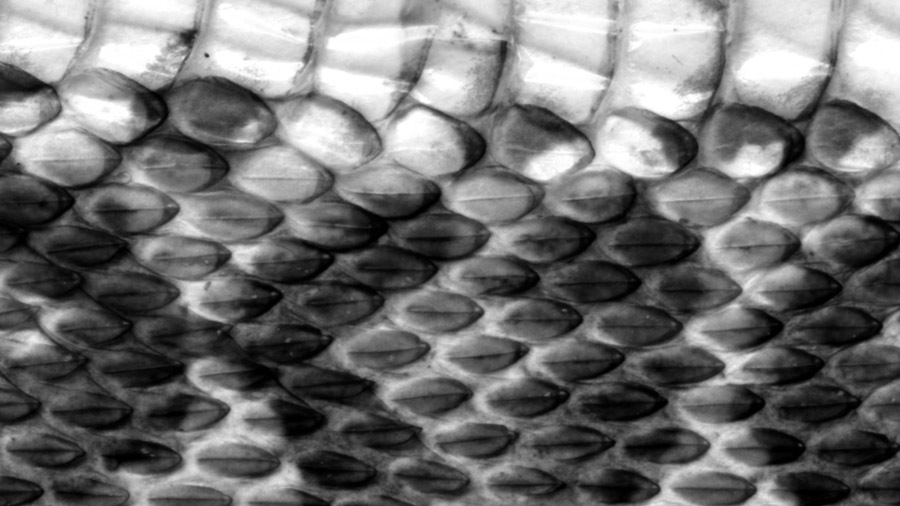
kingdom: Animalia
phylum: Chordata
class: Squamata
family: Viperidae
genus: Gloydius
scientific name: Gloydius brevicauda
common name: Short-tailed mamushi
